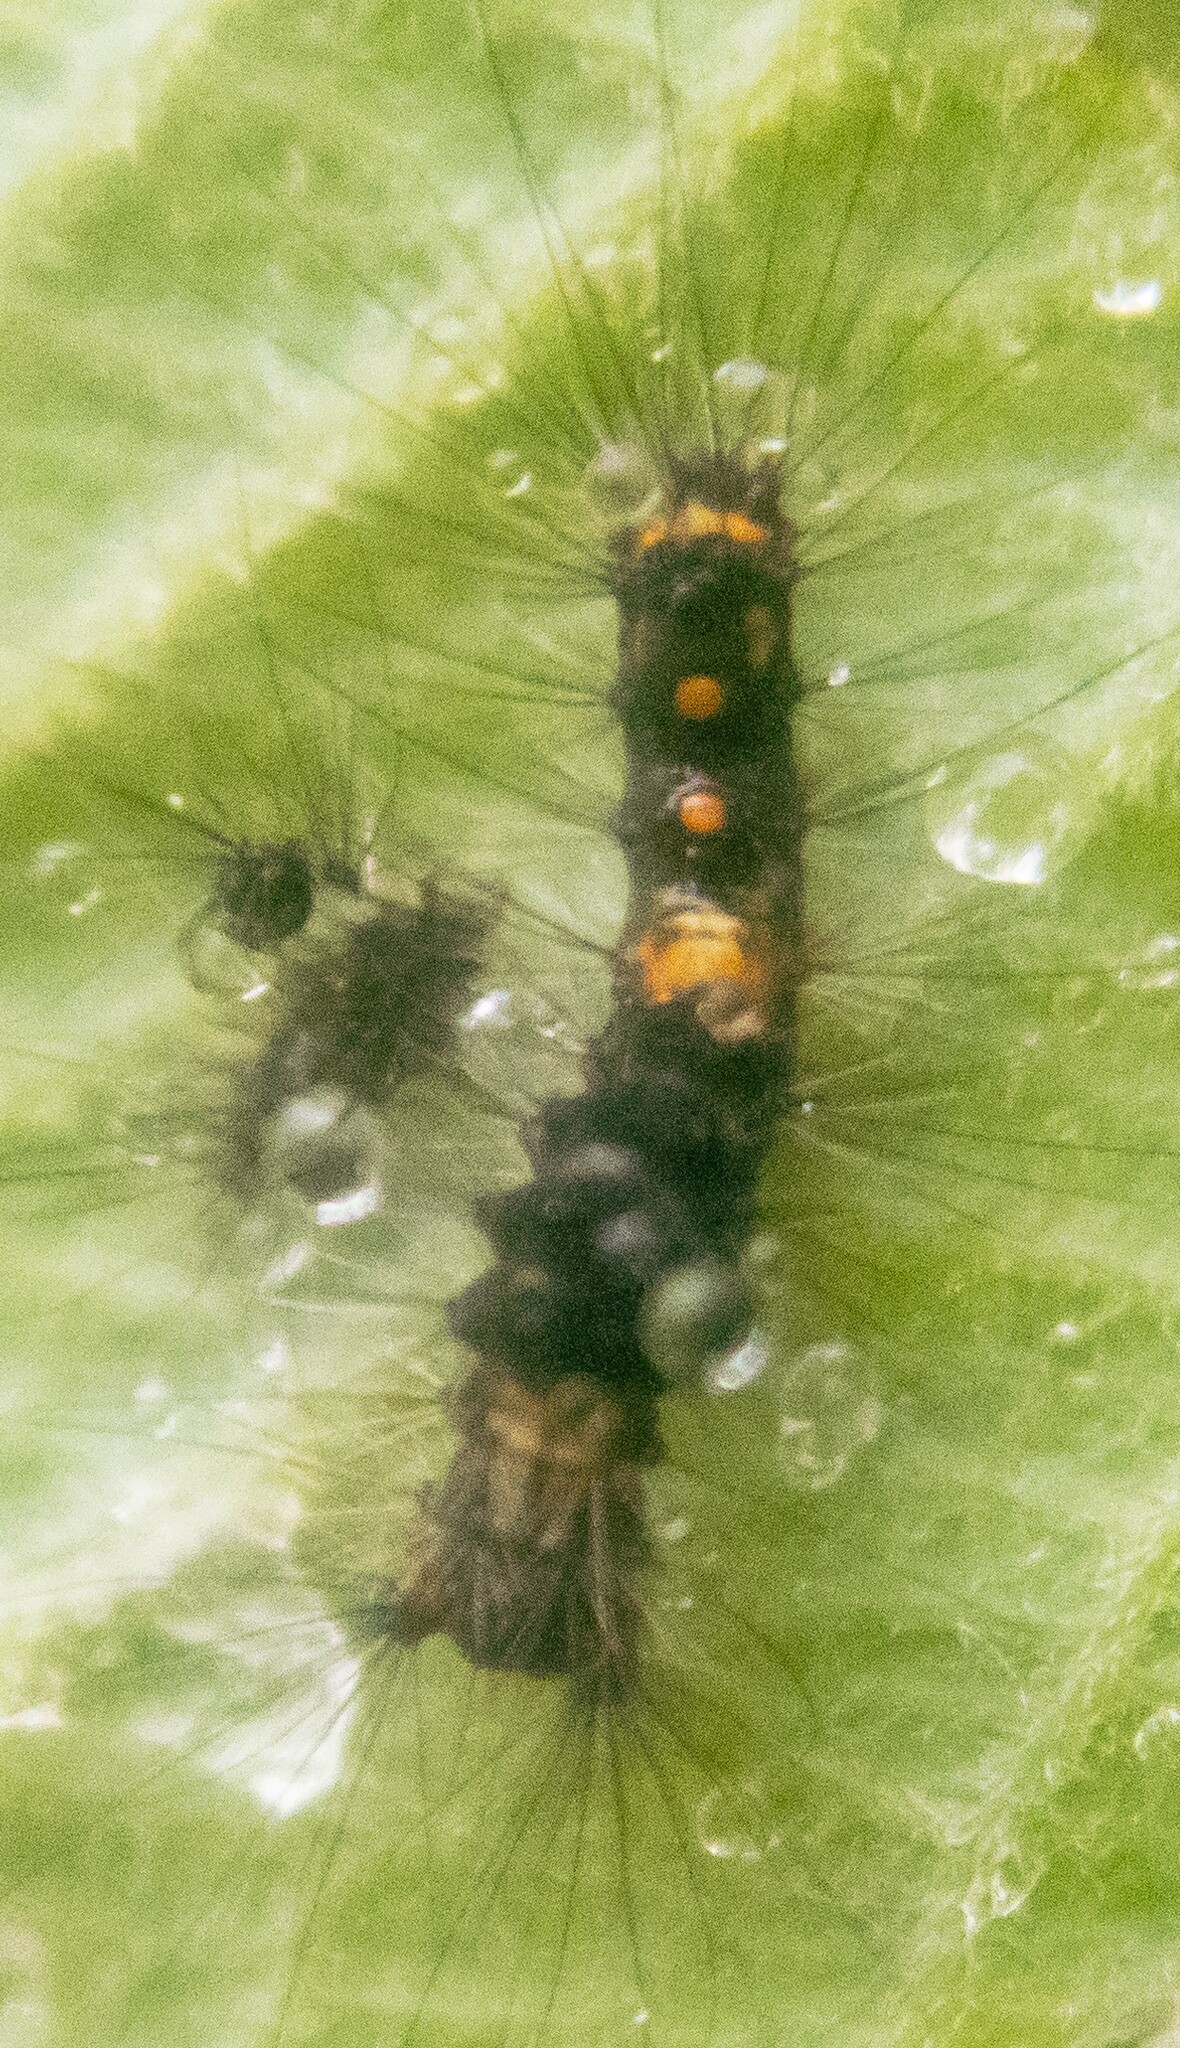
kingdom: Animalia
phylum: Arthropoda
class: Insecta
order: Lepidoptera
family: Erebidae
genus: Orgyia
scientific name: Orgyia antiqua
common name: Vapourer
